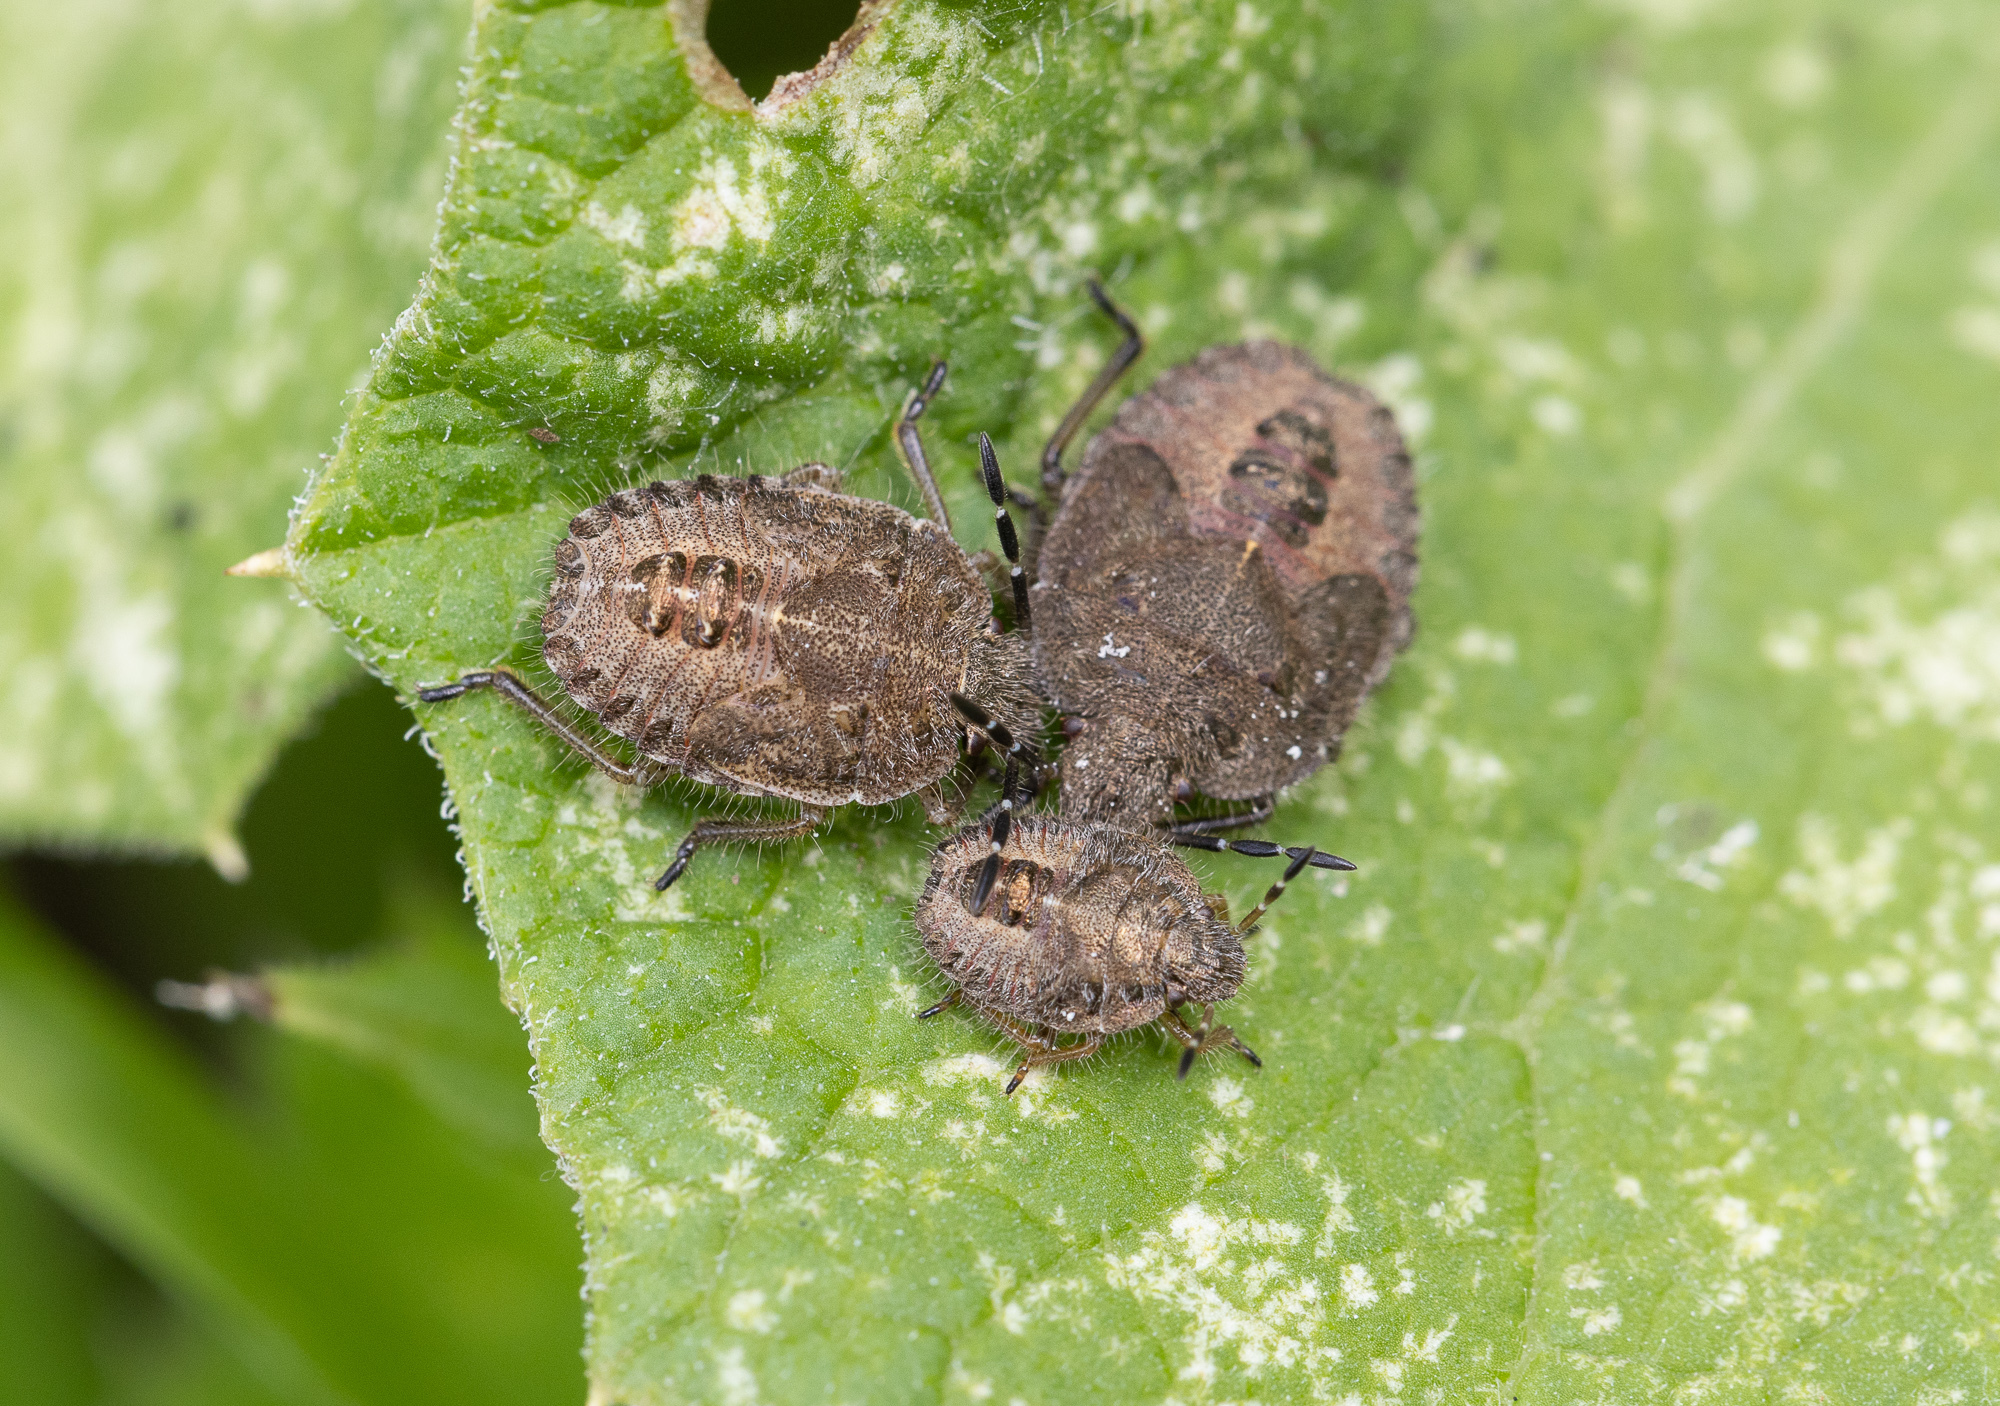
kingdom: Animalia
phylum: Arthropoda
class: Insecta
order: Hemiptera
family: Pentatomidae
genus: Dolycoris
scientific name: Dolycoris baccarum
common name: Sloe bug
